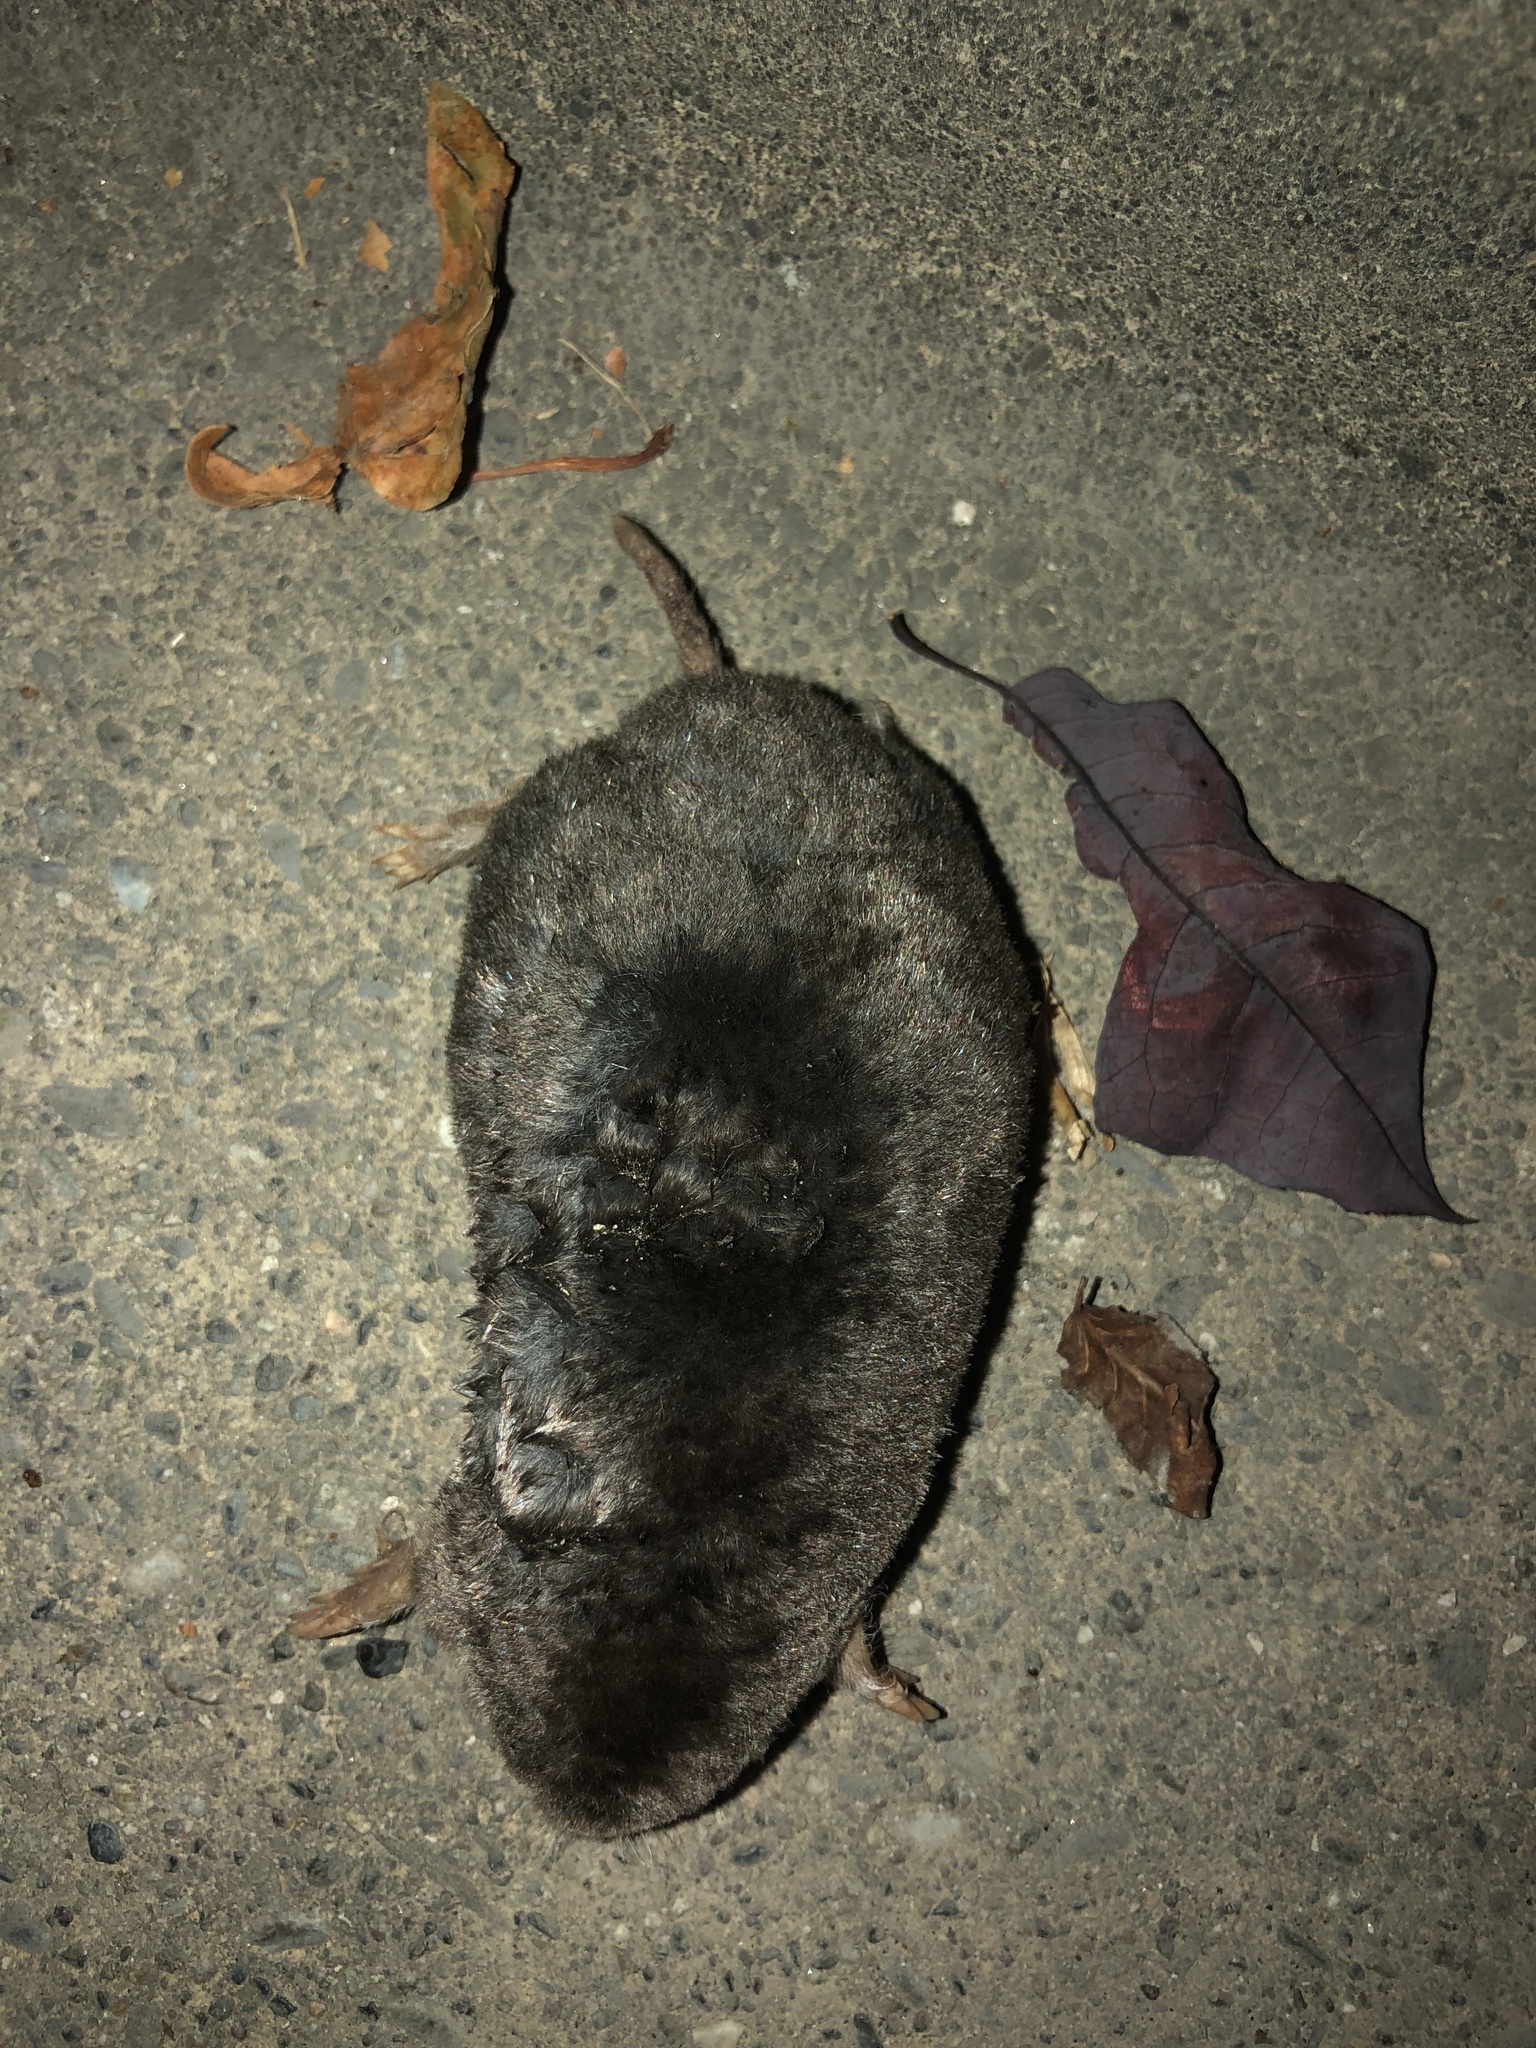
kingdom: Animalia
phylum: Chordata
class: Mammalia
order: Soricomorpha
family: Talpidae
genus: Scapanus
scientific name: Scapanus orarius
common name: Coast mole
